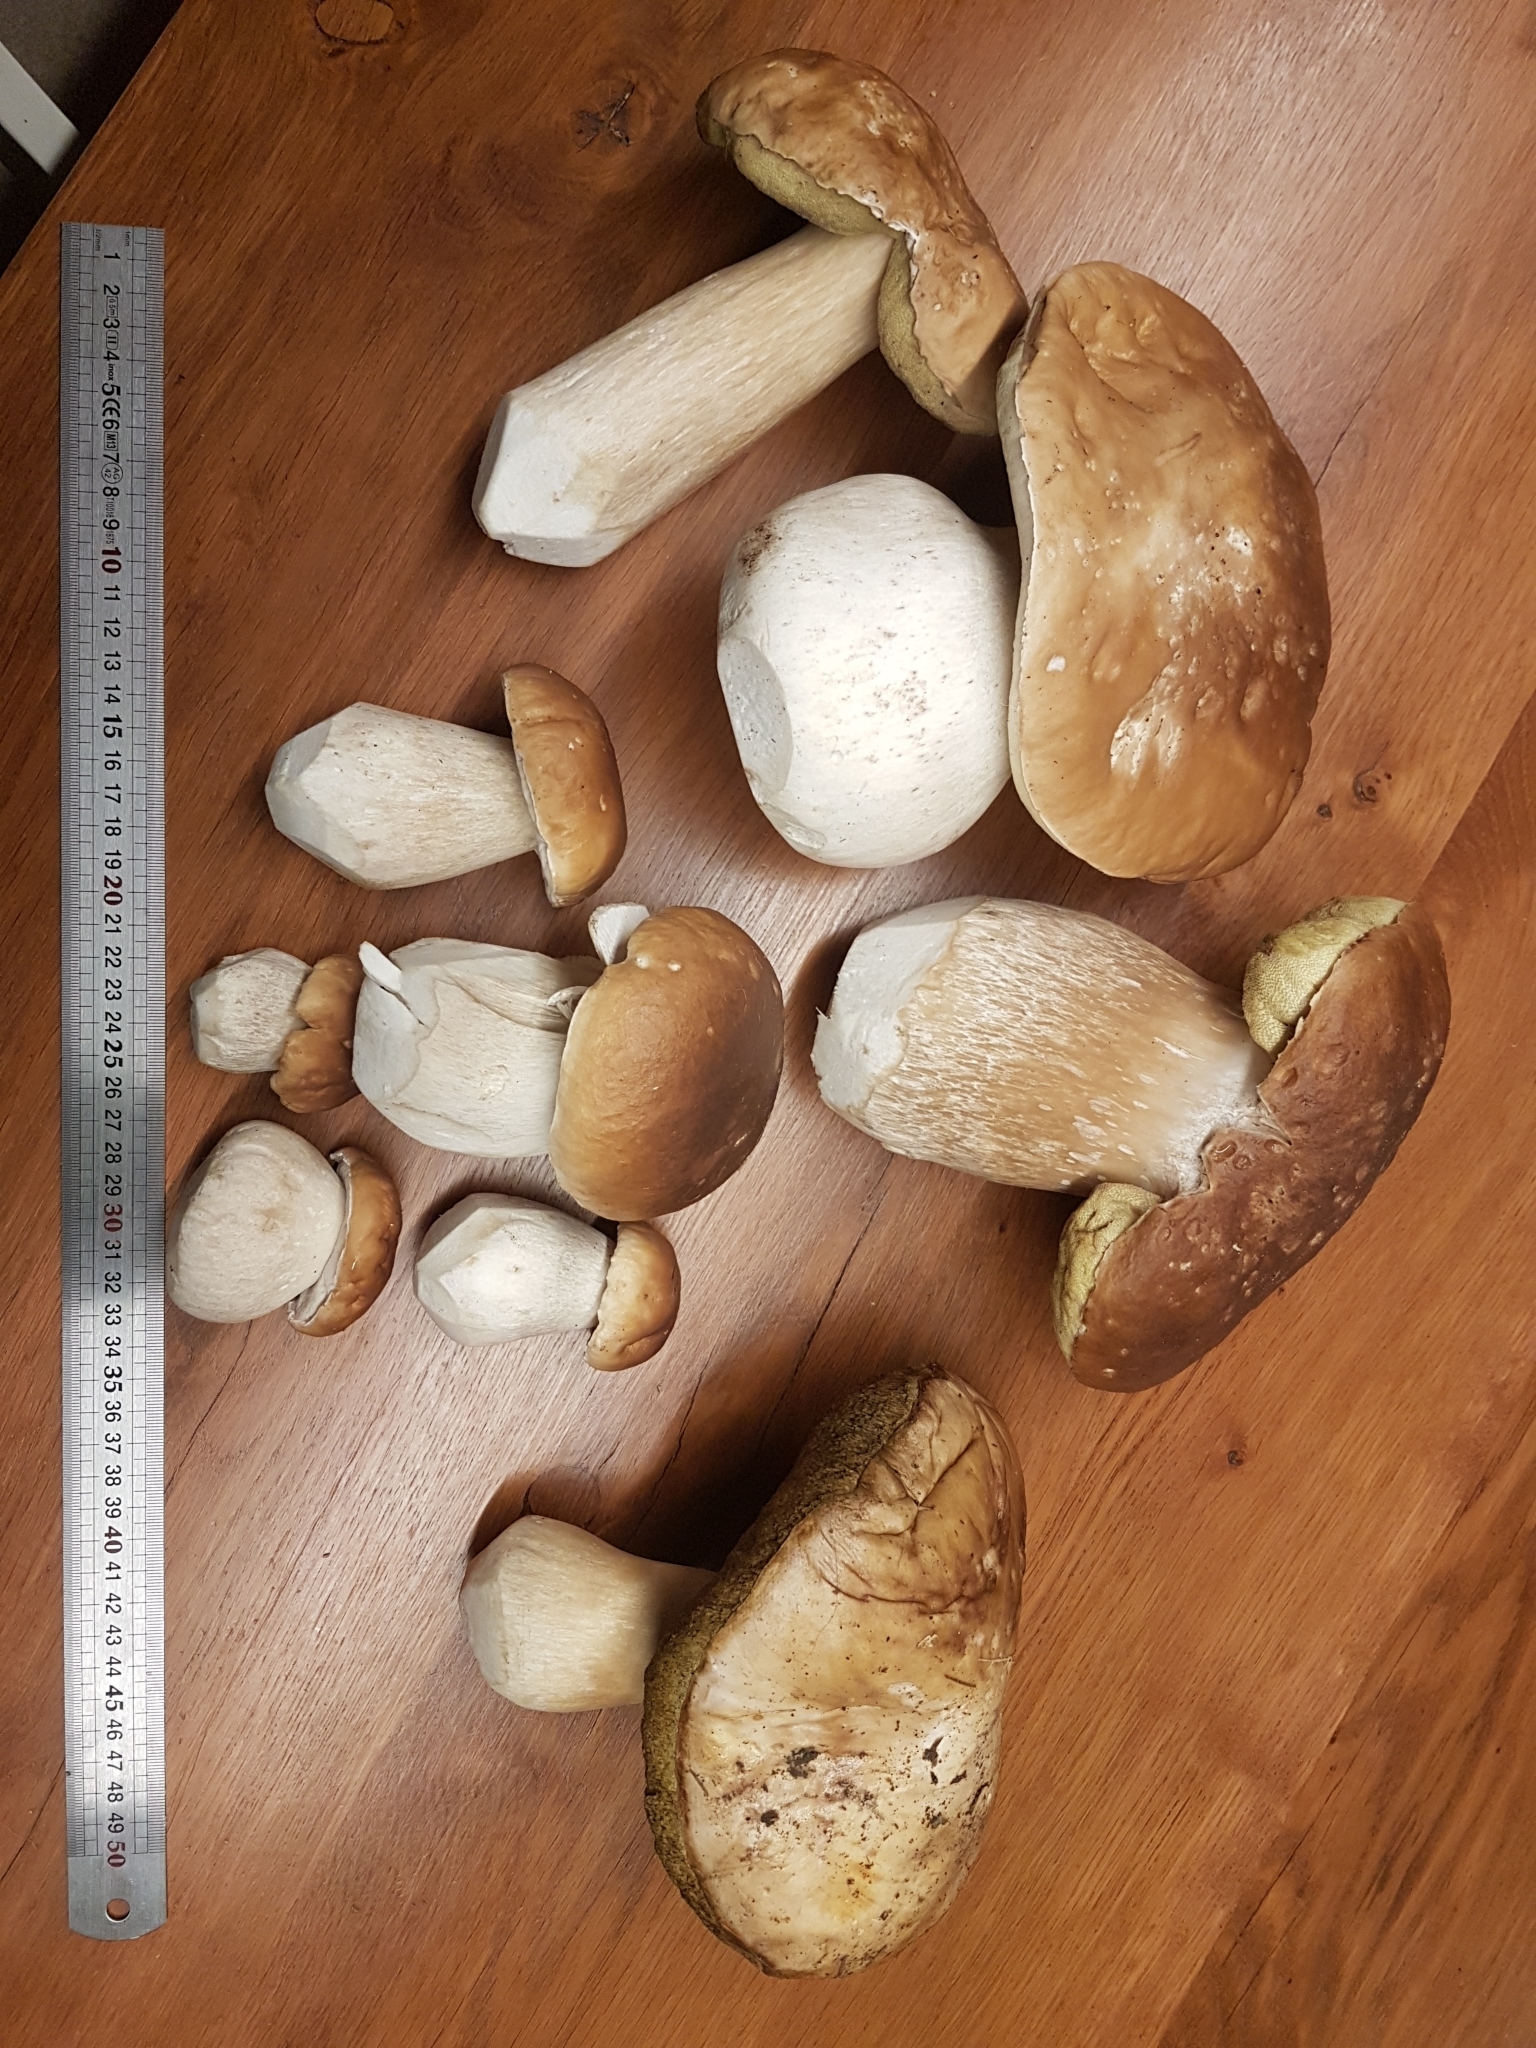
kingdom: Fungi
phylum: Basidiomycota
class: Agaricomycetes
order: Boletales
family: Boletaceae
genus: Boletus
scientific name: Boletus edulis
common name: Cep
